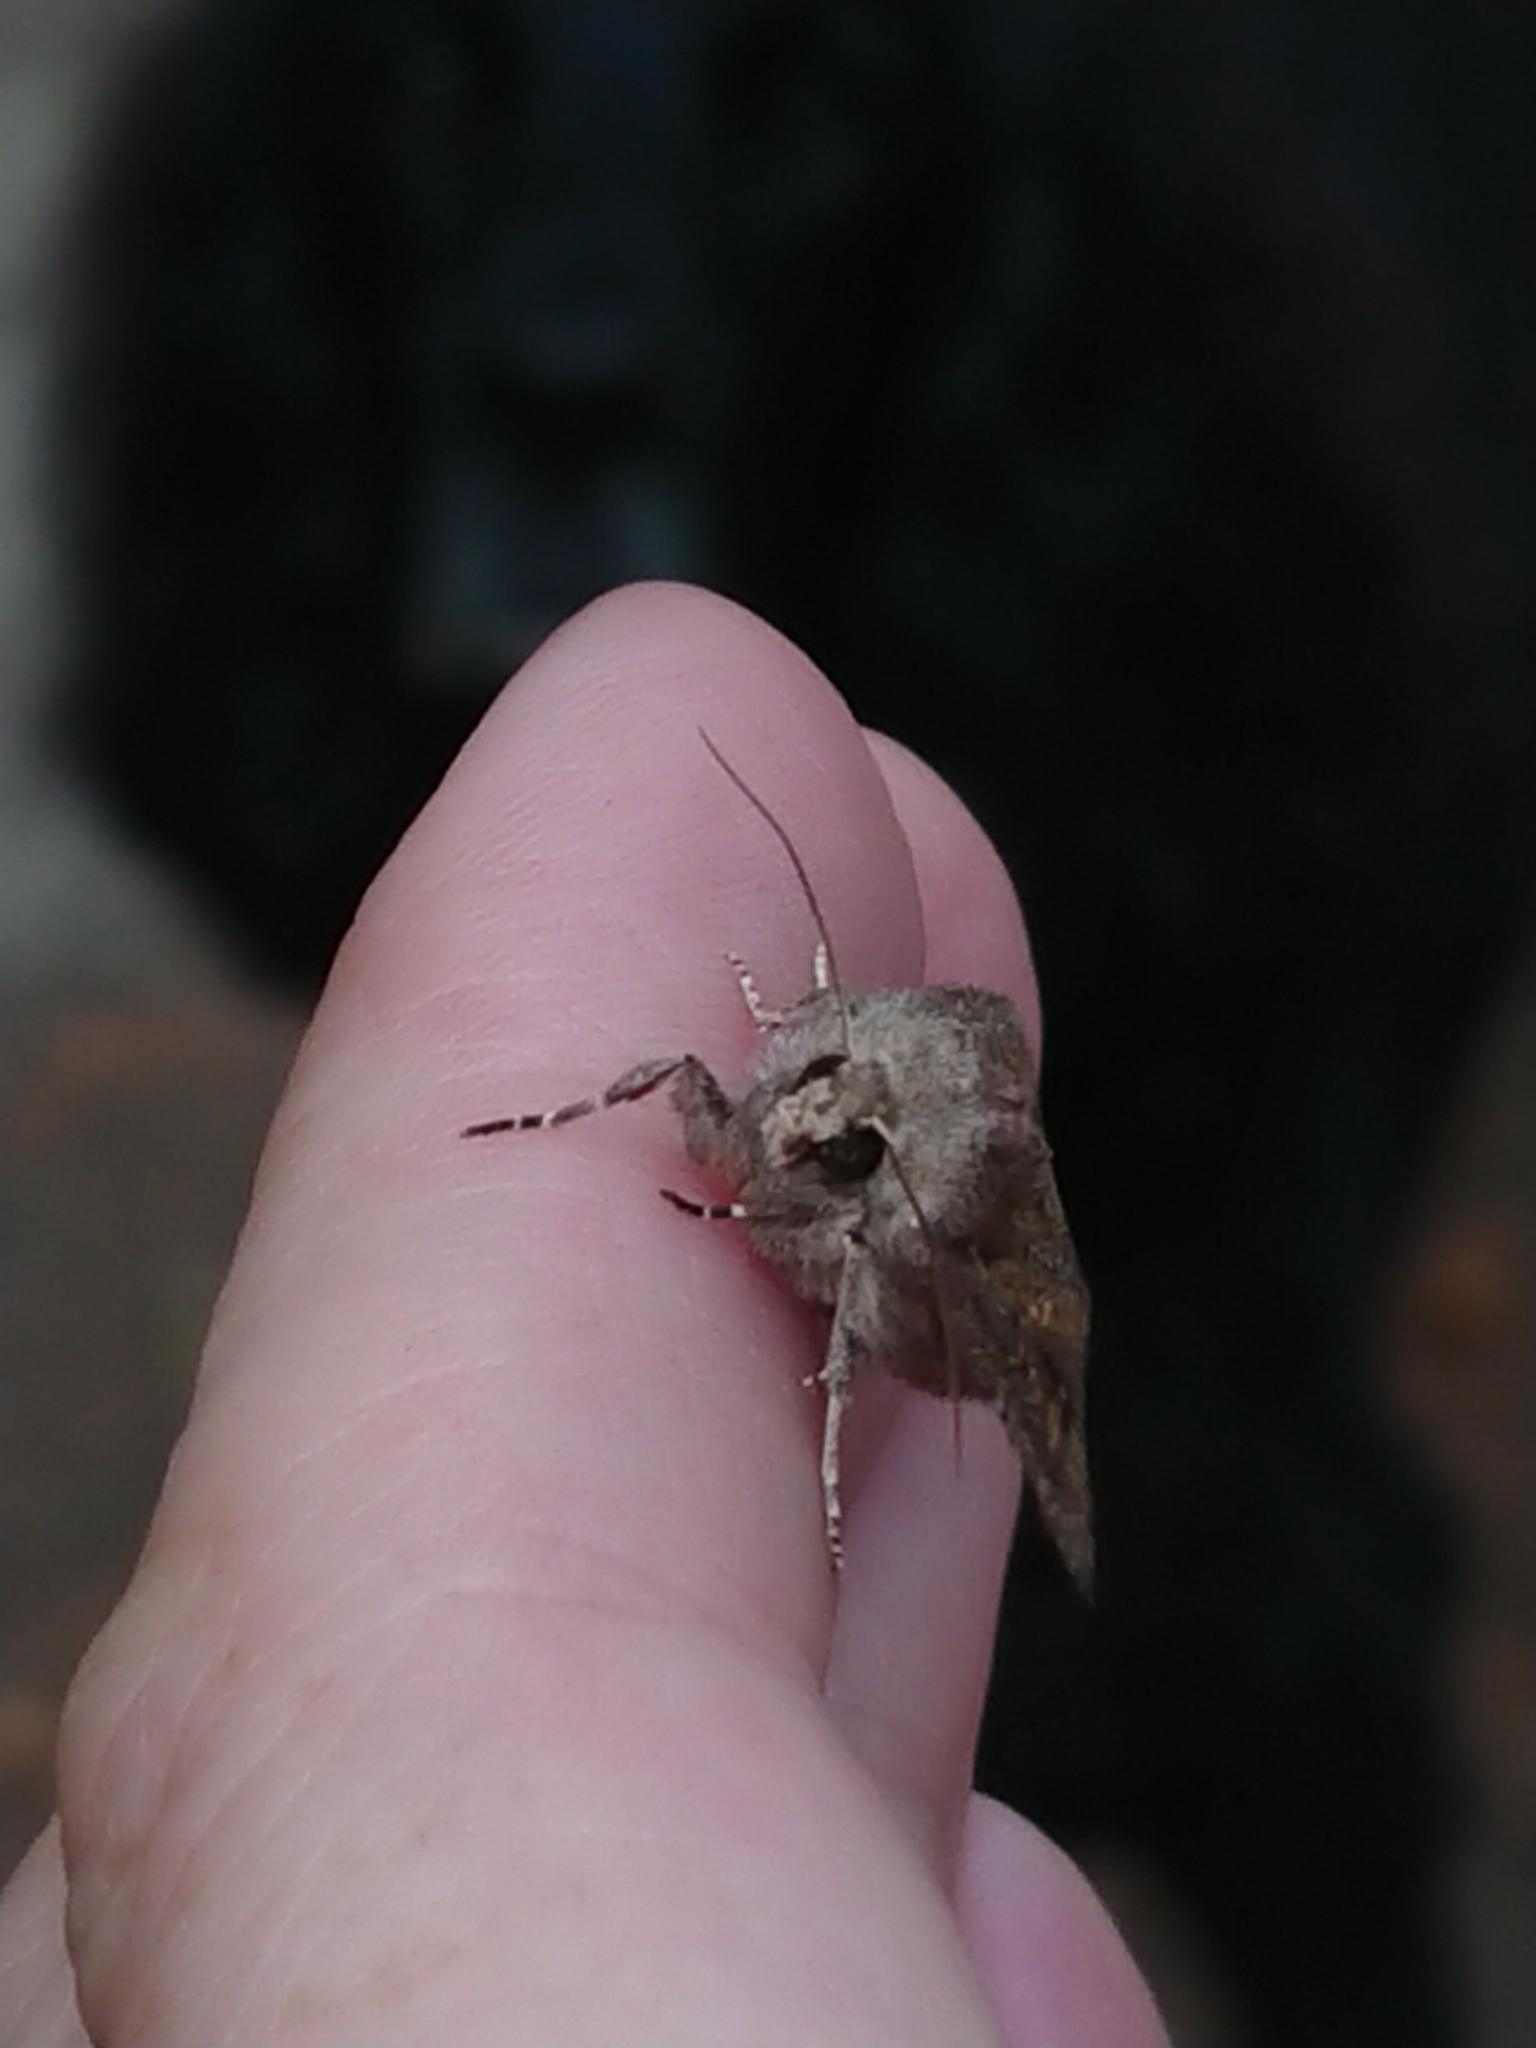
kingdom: Animalia
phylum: Arthropoda
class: Insecta
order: Lepidoptera
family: Noctuidae
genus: Ichneutica
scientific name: Ichneutica agorastis
